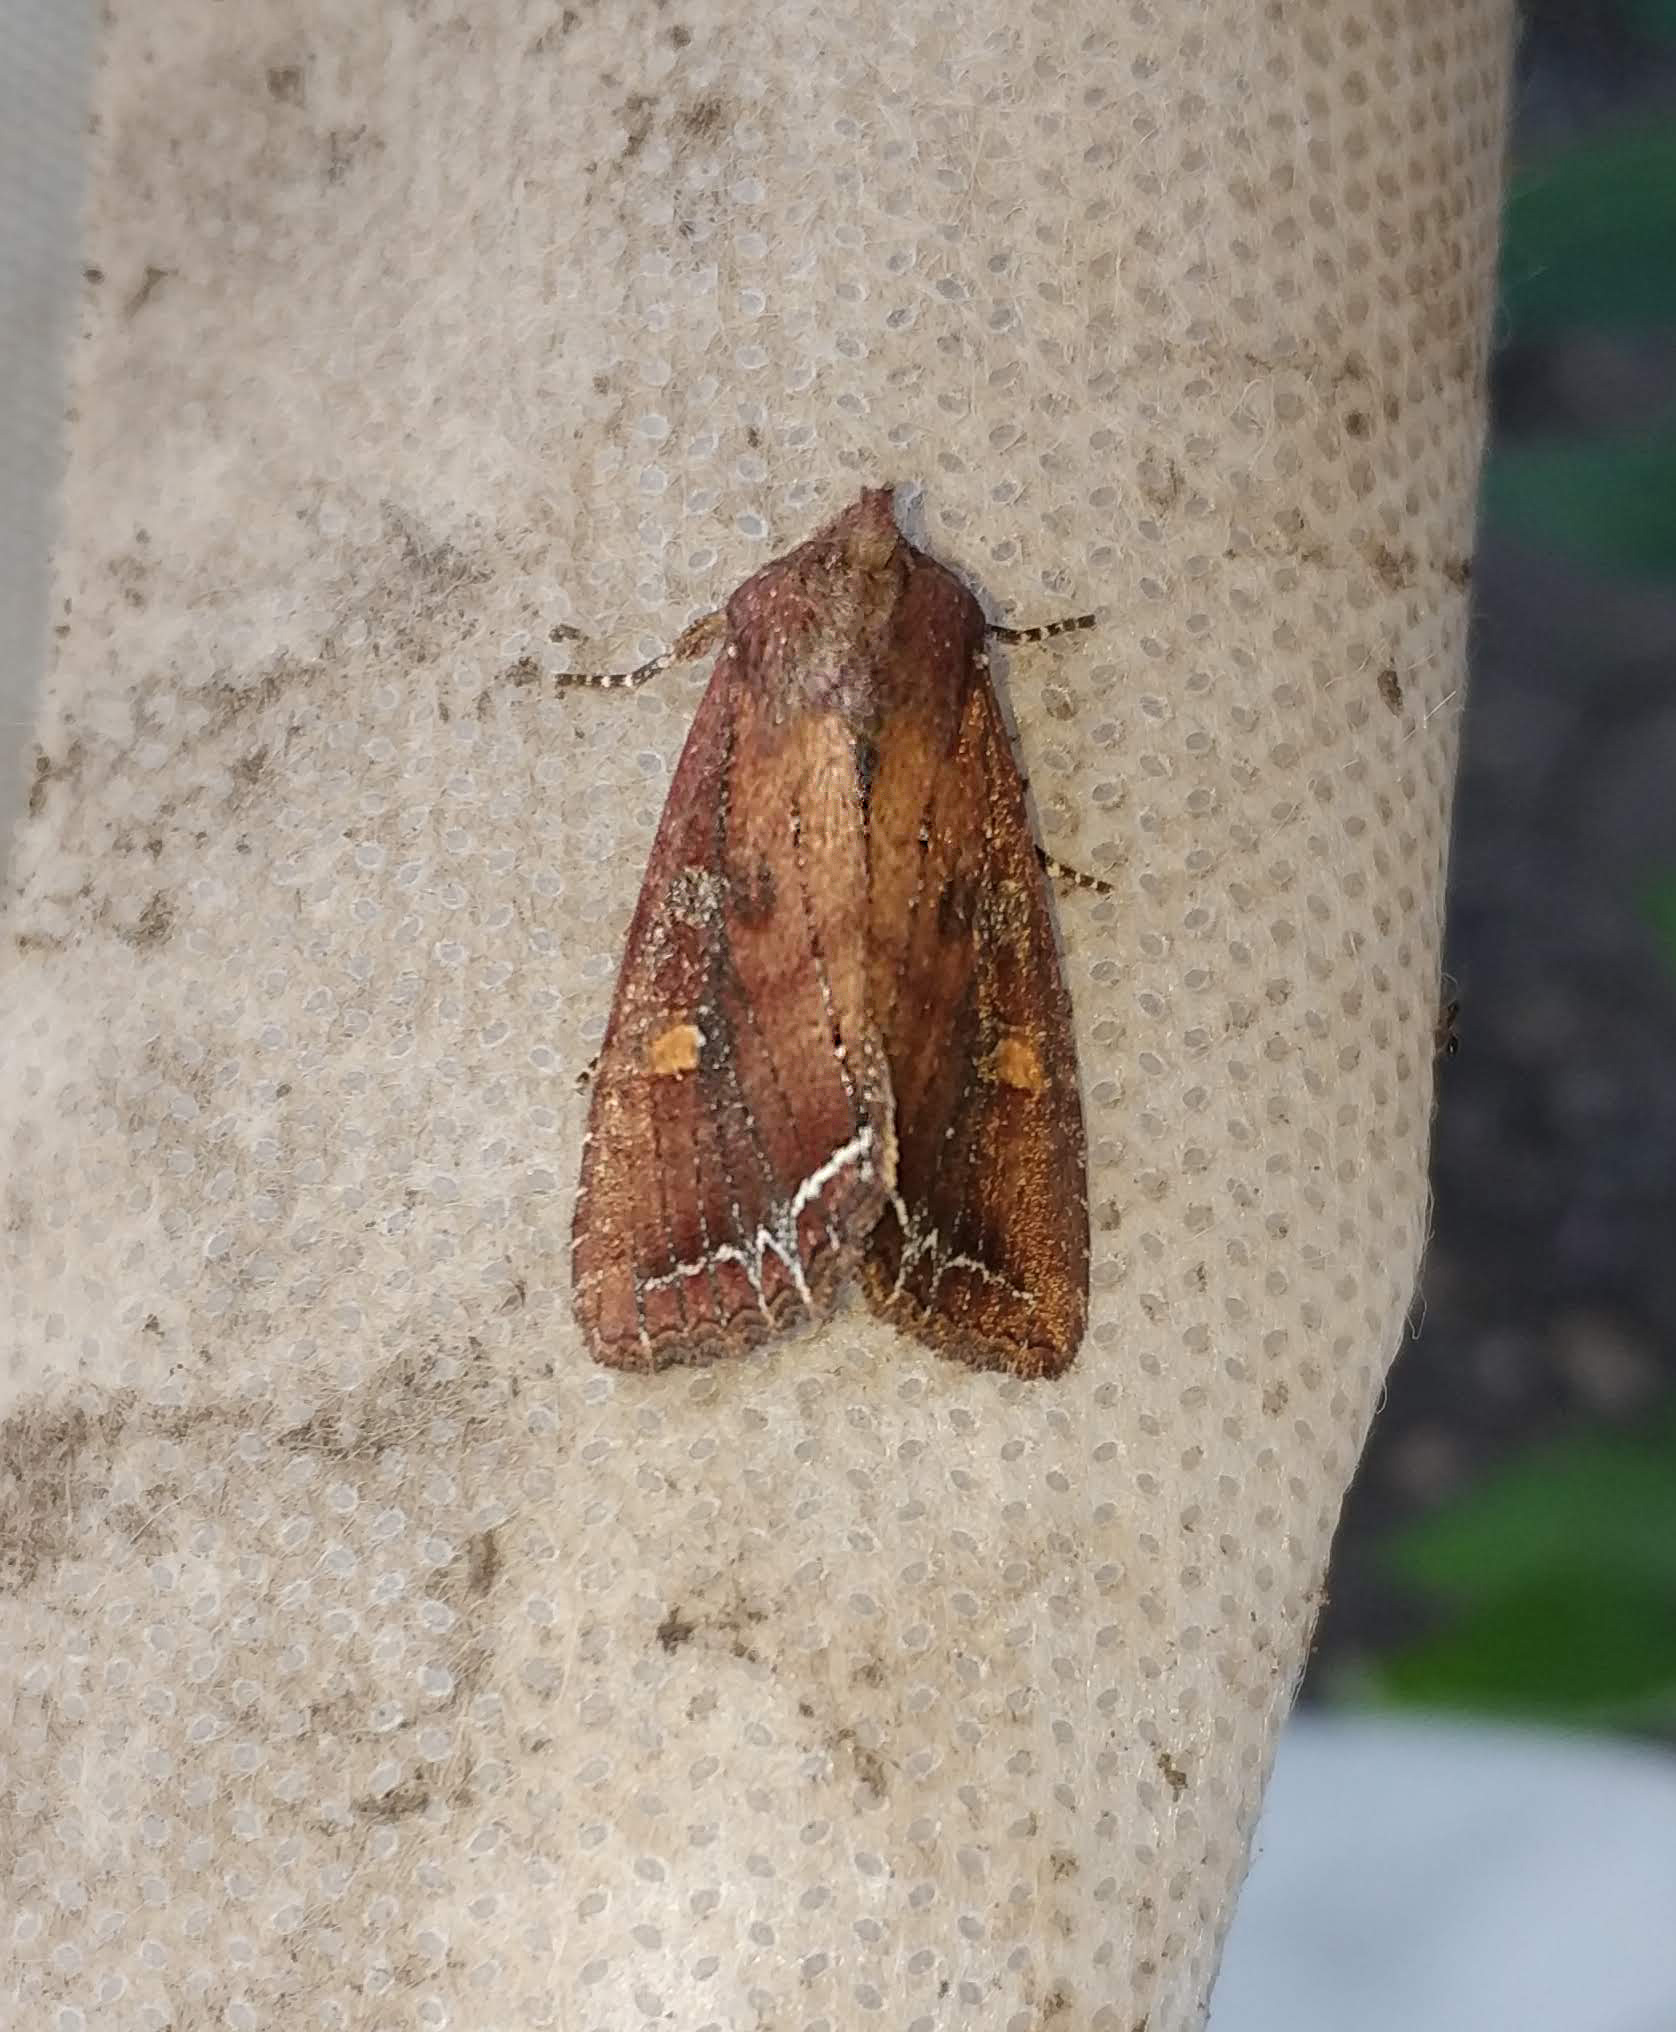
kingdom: Animalia
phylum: Arthropoda
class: Insecta
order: Lepidoptera
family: Noctuidae
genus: Lacanobia
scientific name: Lacanobia oleracea
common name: Bright-line brown-eye
